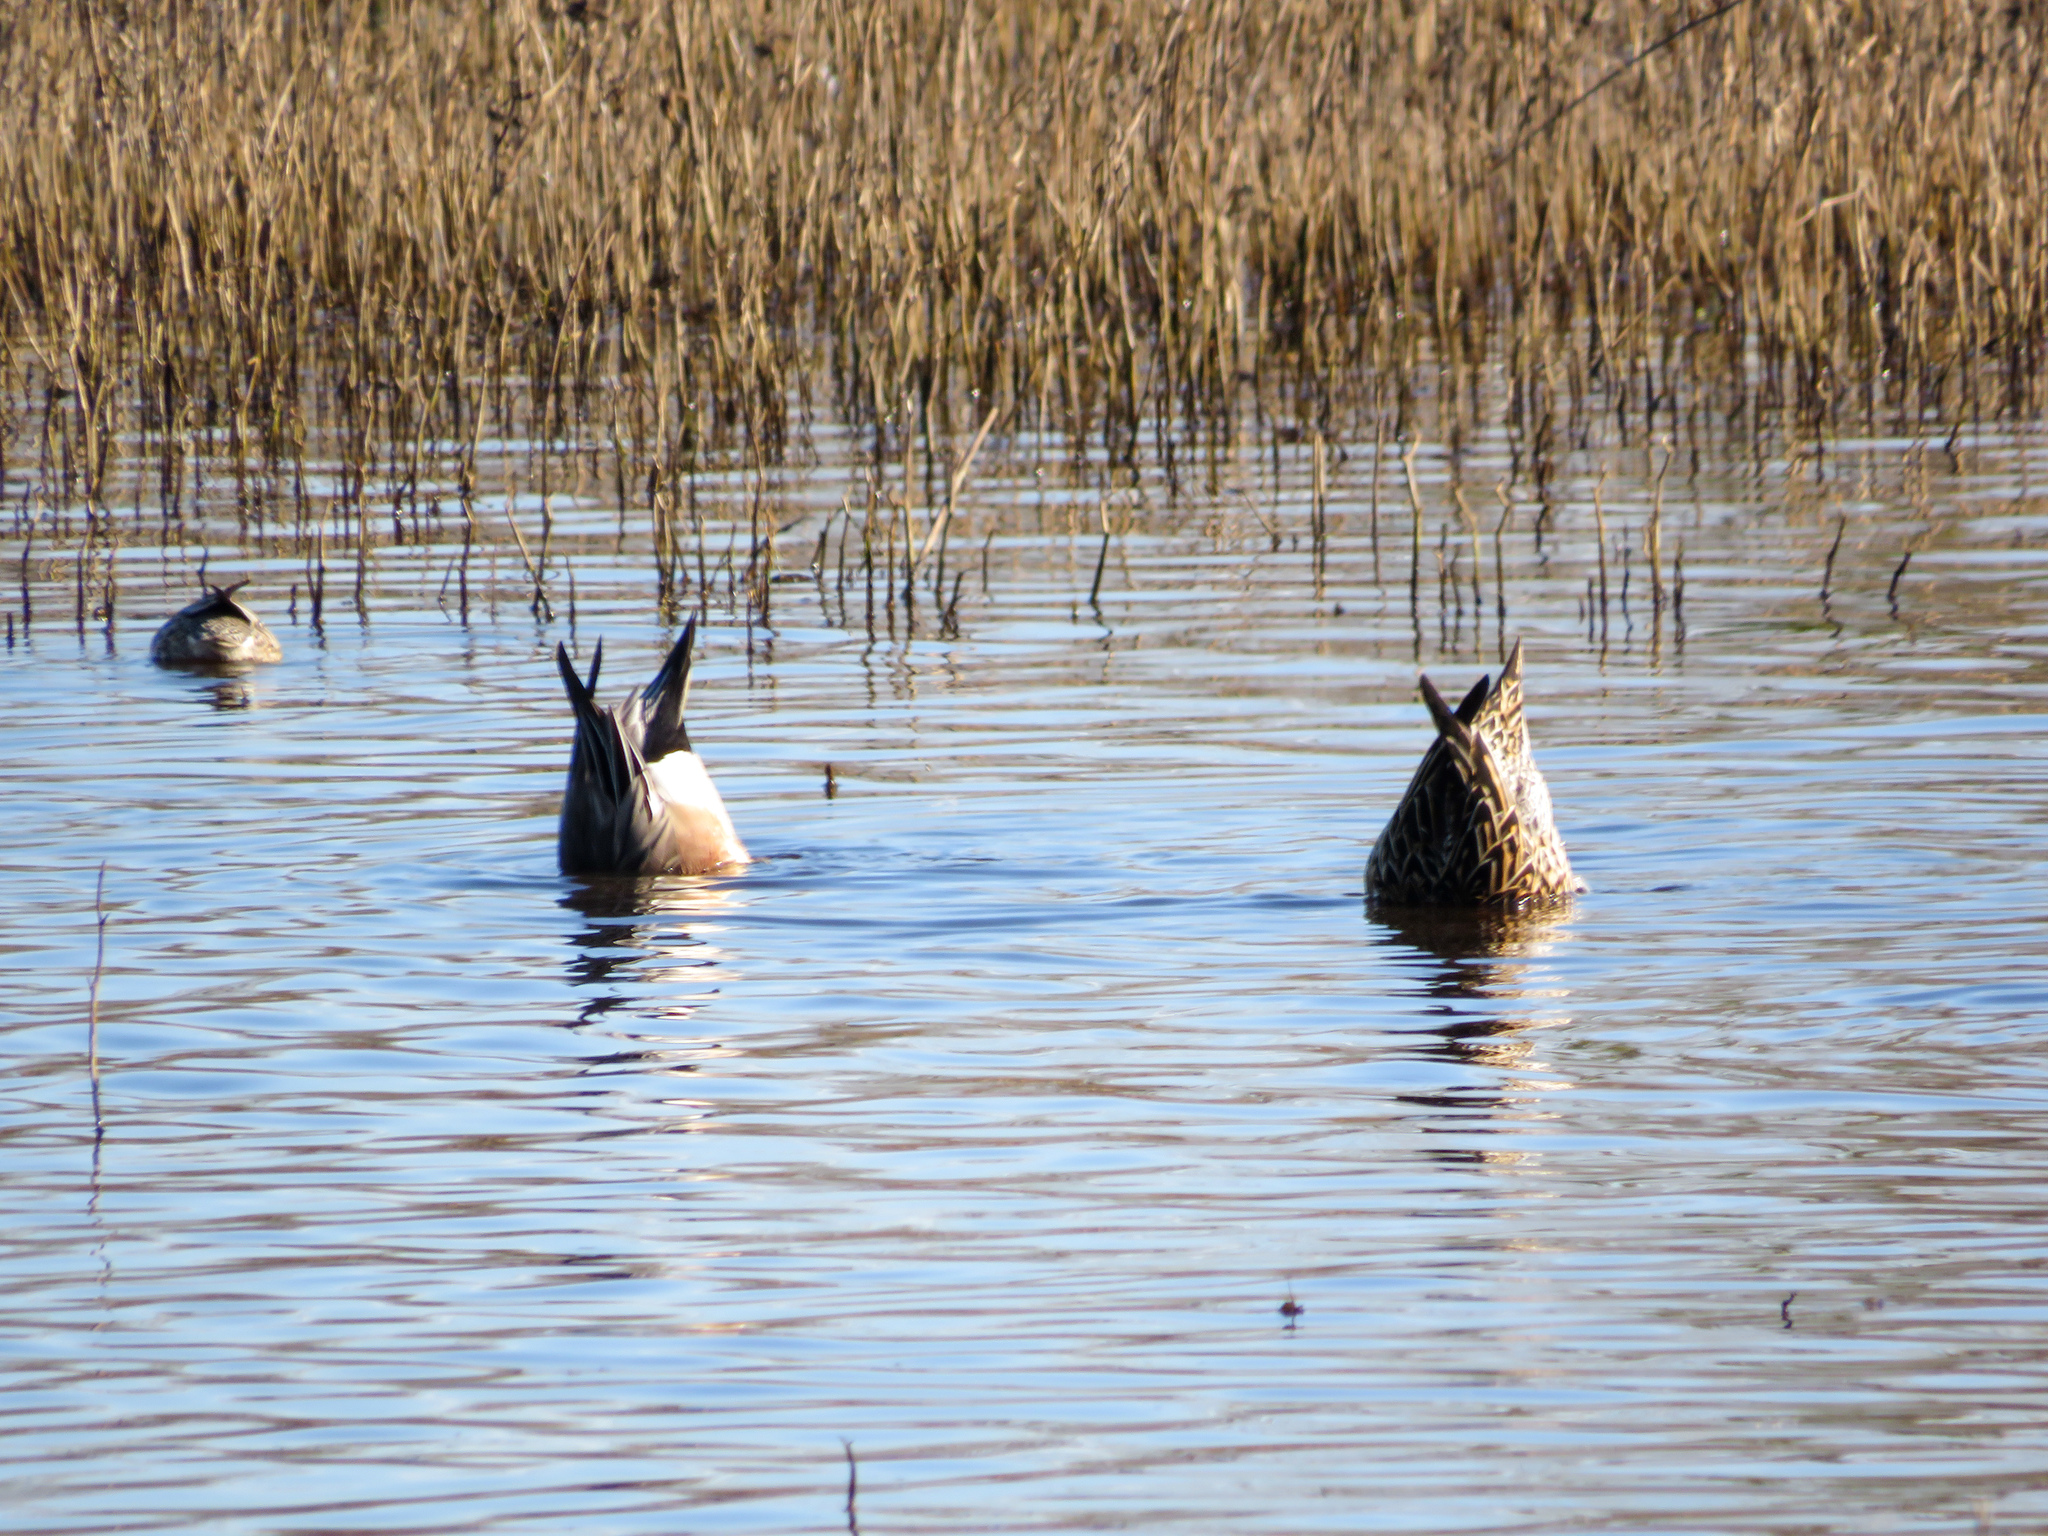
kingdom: Animalia
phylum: Chordata
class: Aves
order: Anseriformes
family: Anatidae
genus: Anas
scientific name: Anas acuta
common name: Northern pintail
